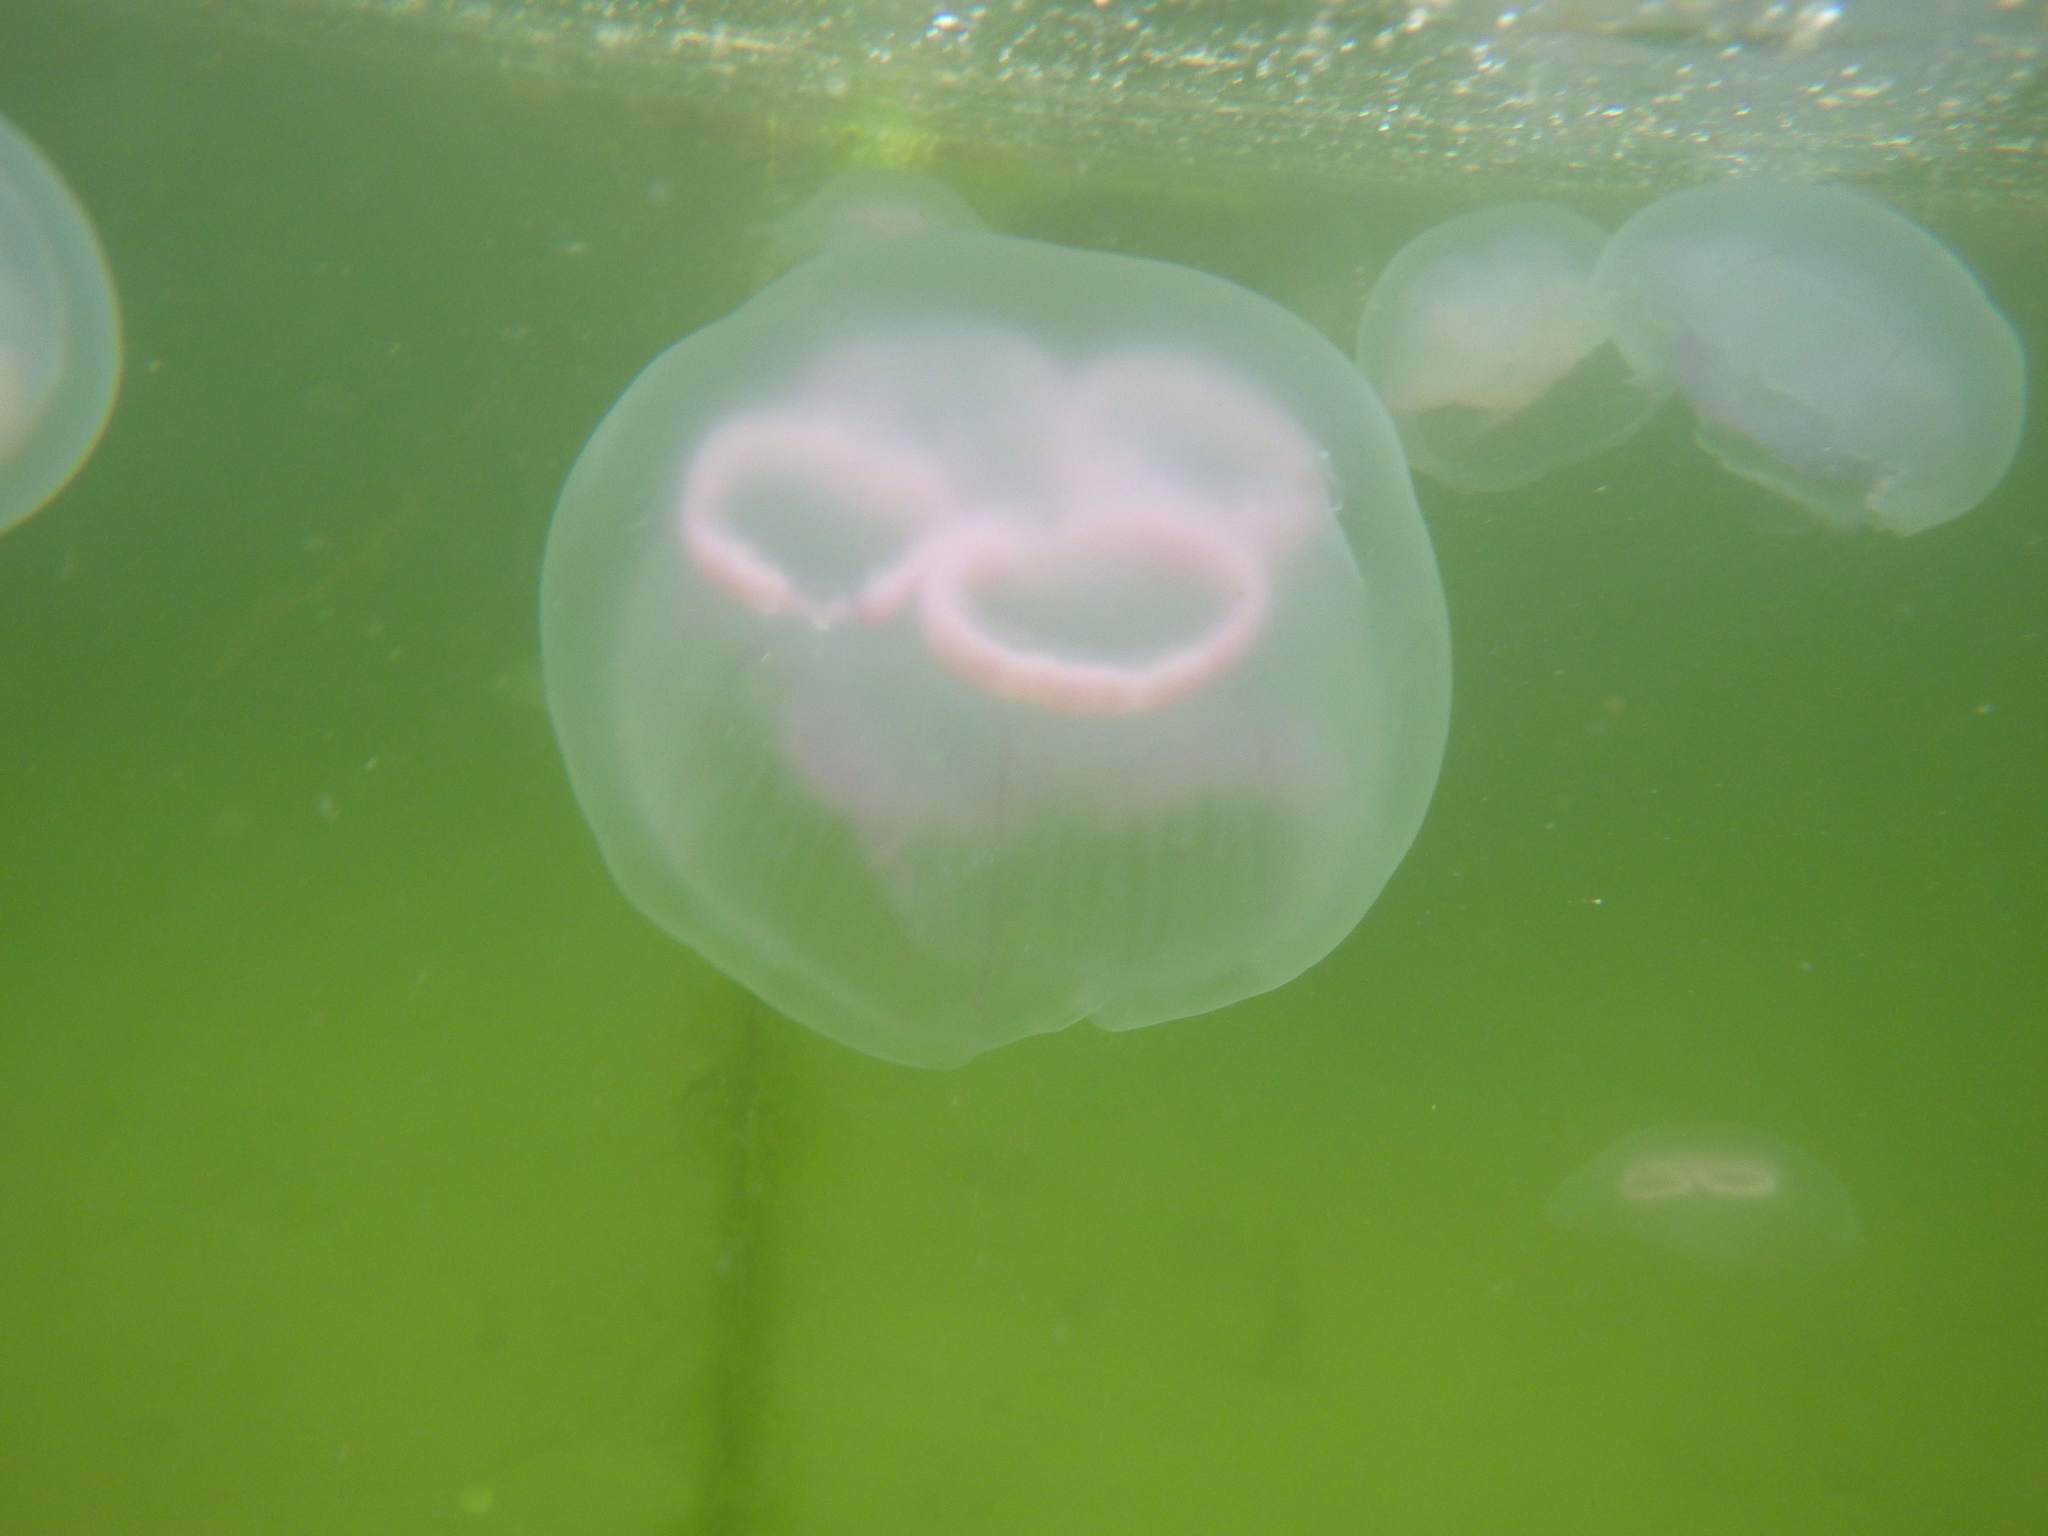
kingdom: Animalia
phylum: Cnidaria
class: Scyphozoa
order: Semaeostomeae
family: Ulmaridae
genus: Aurelia
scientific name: Aurelia aurita
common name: Moon jellyfish
